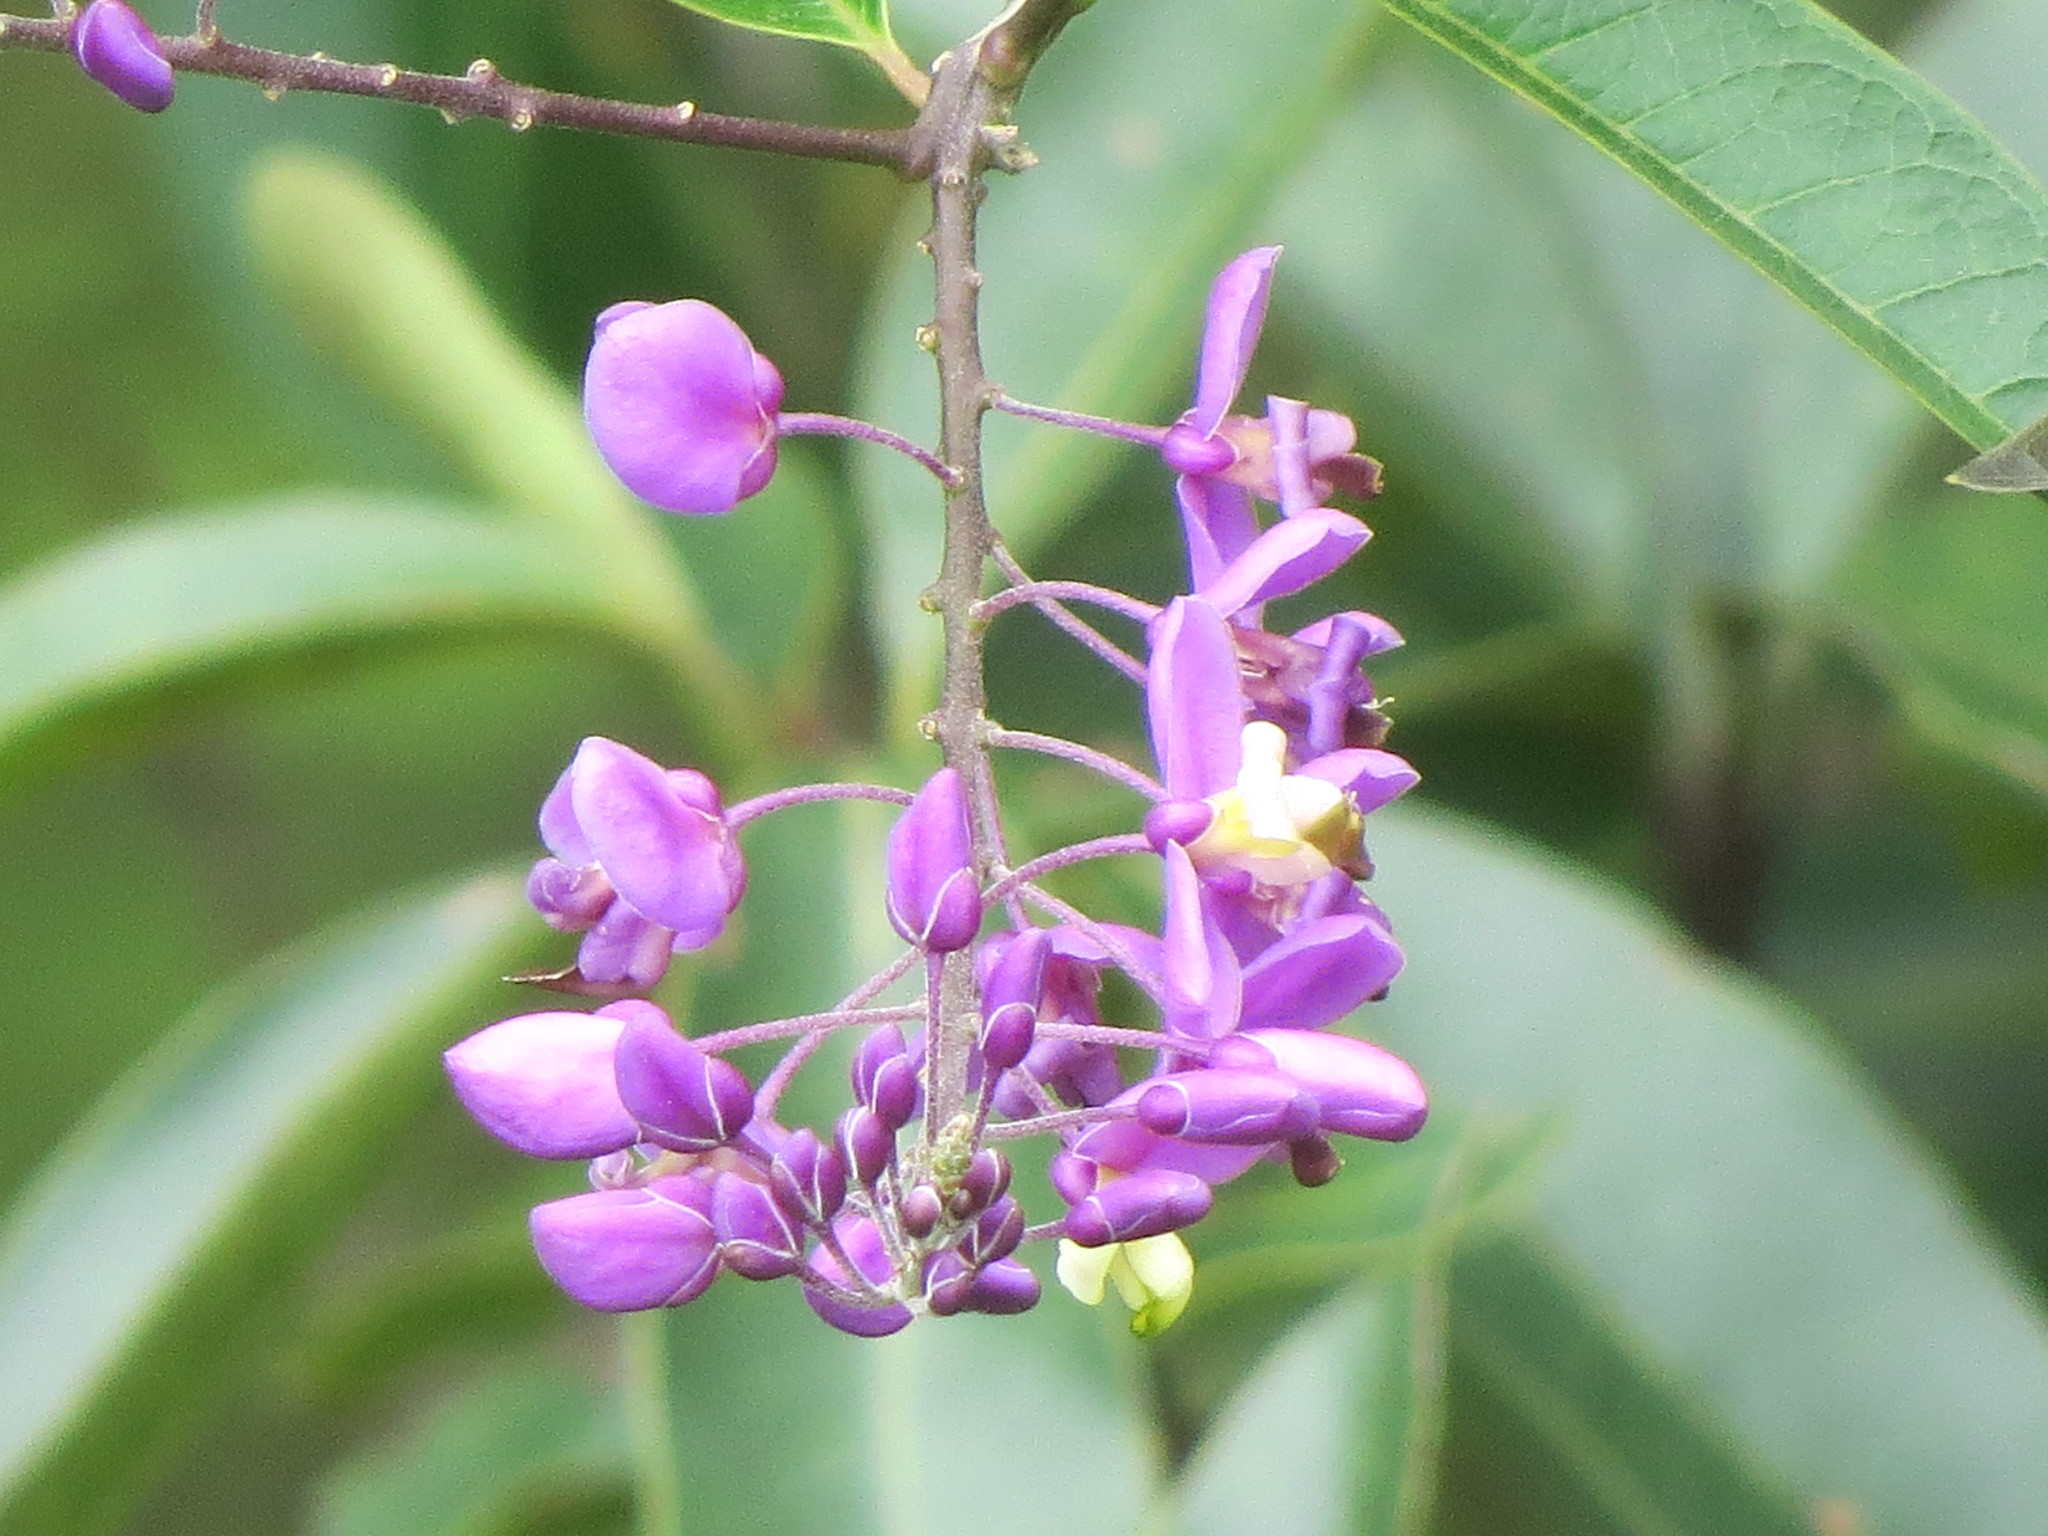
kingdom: Plantae
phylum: Tracheophyta
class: Magnoliopsida
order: Fabales
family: Polygalaceae
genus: Asemeia
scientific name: Asemeia floribunda
